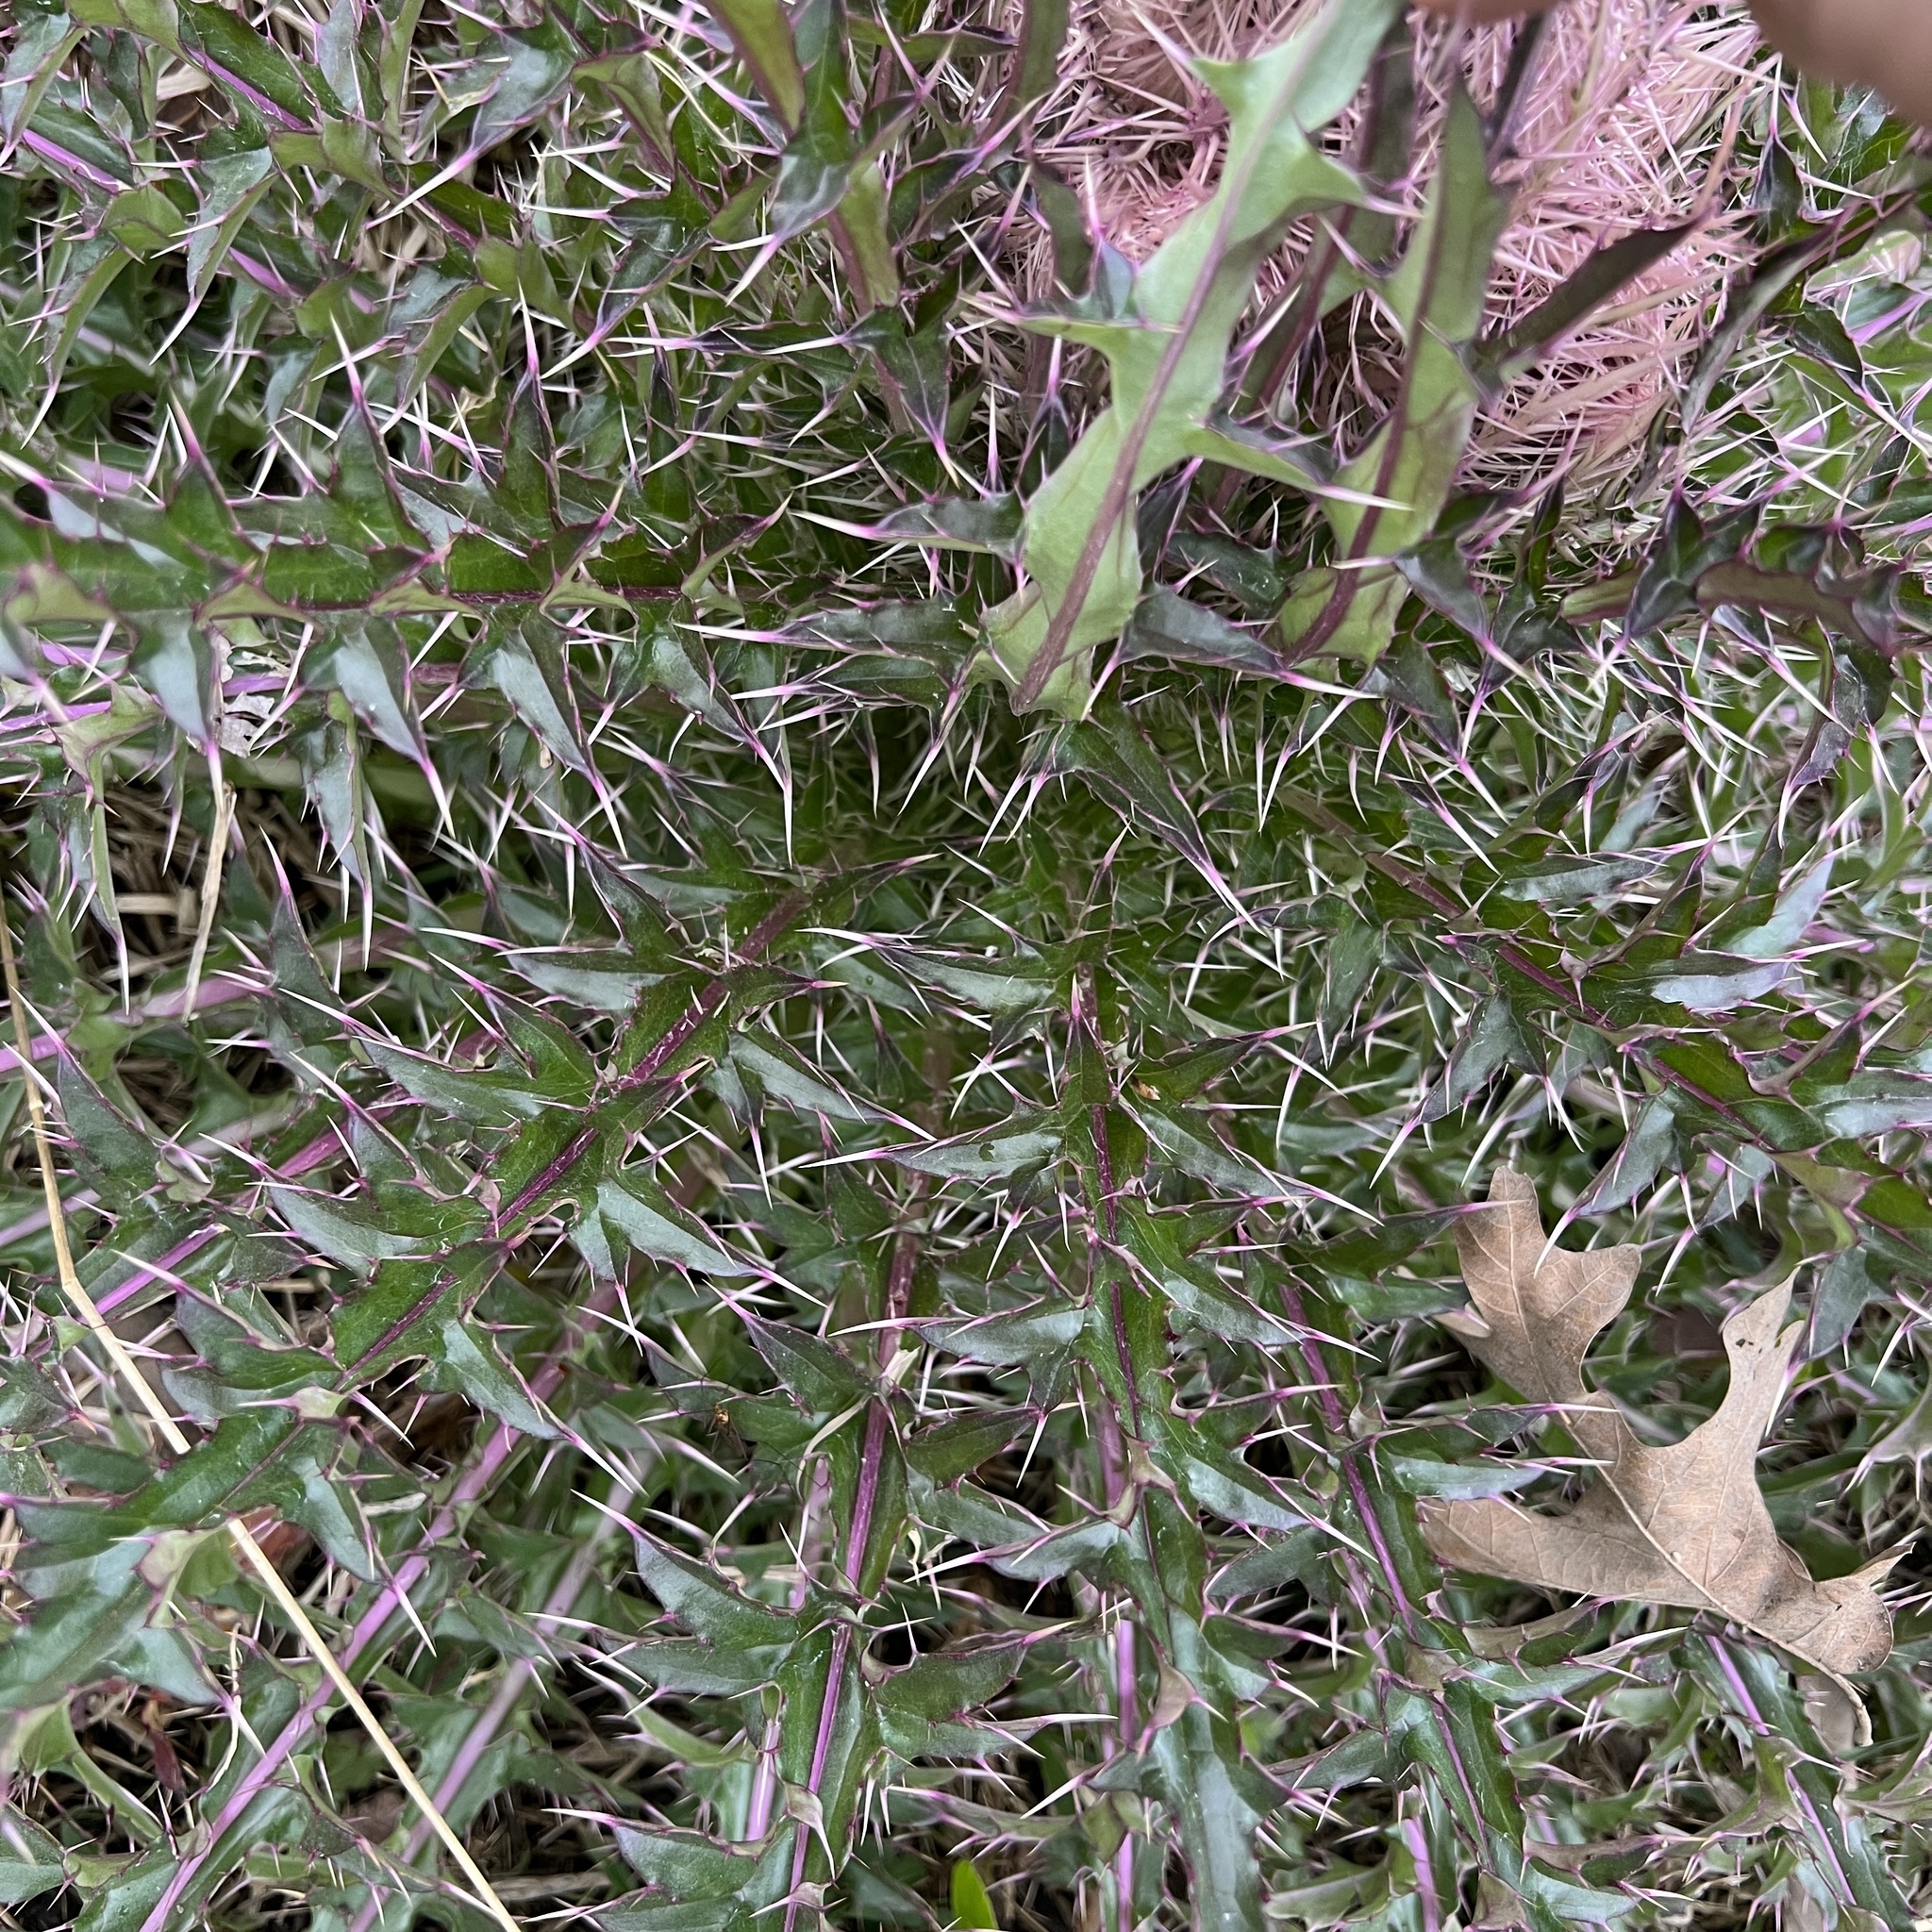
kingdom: Plantae
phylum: Tracheophyta
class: Magnoliopsida
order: Asterales
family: Asteraceae
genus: Cirsium
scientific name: Cirsium horridulum
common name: Bristly thistle
